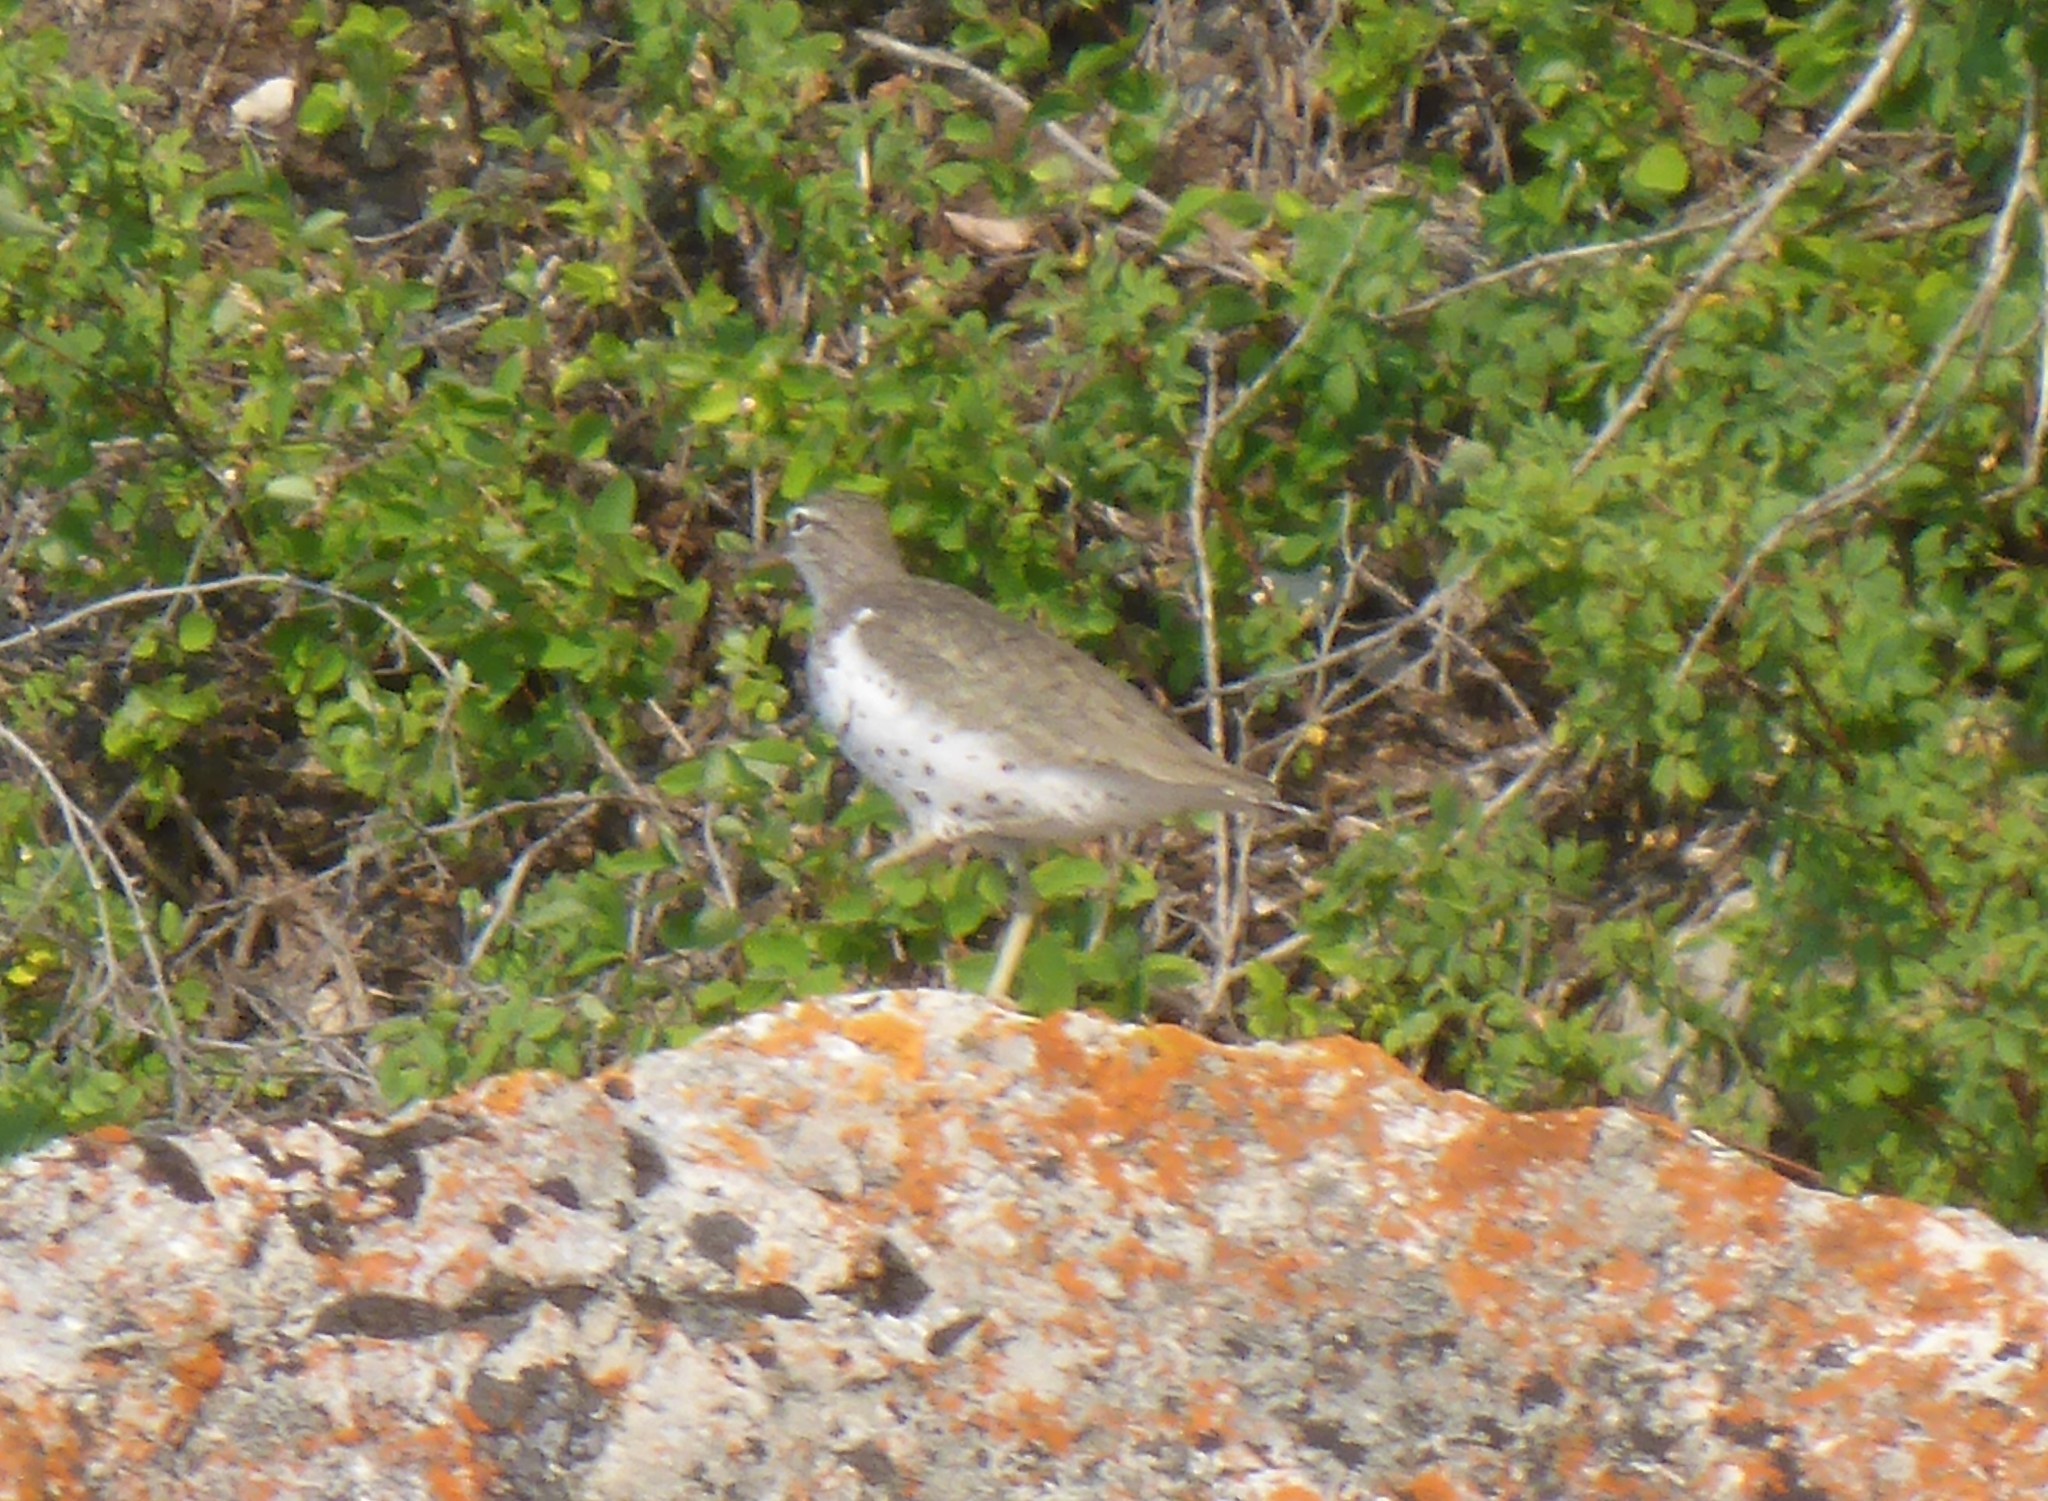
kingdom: Animalia
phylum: Chordata
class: Aves
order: Charadriiformes
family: Scolopacidae
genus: Actitis
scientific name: Actitis macularius
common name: Spotted sandpiper
